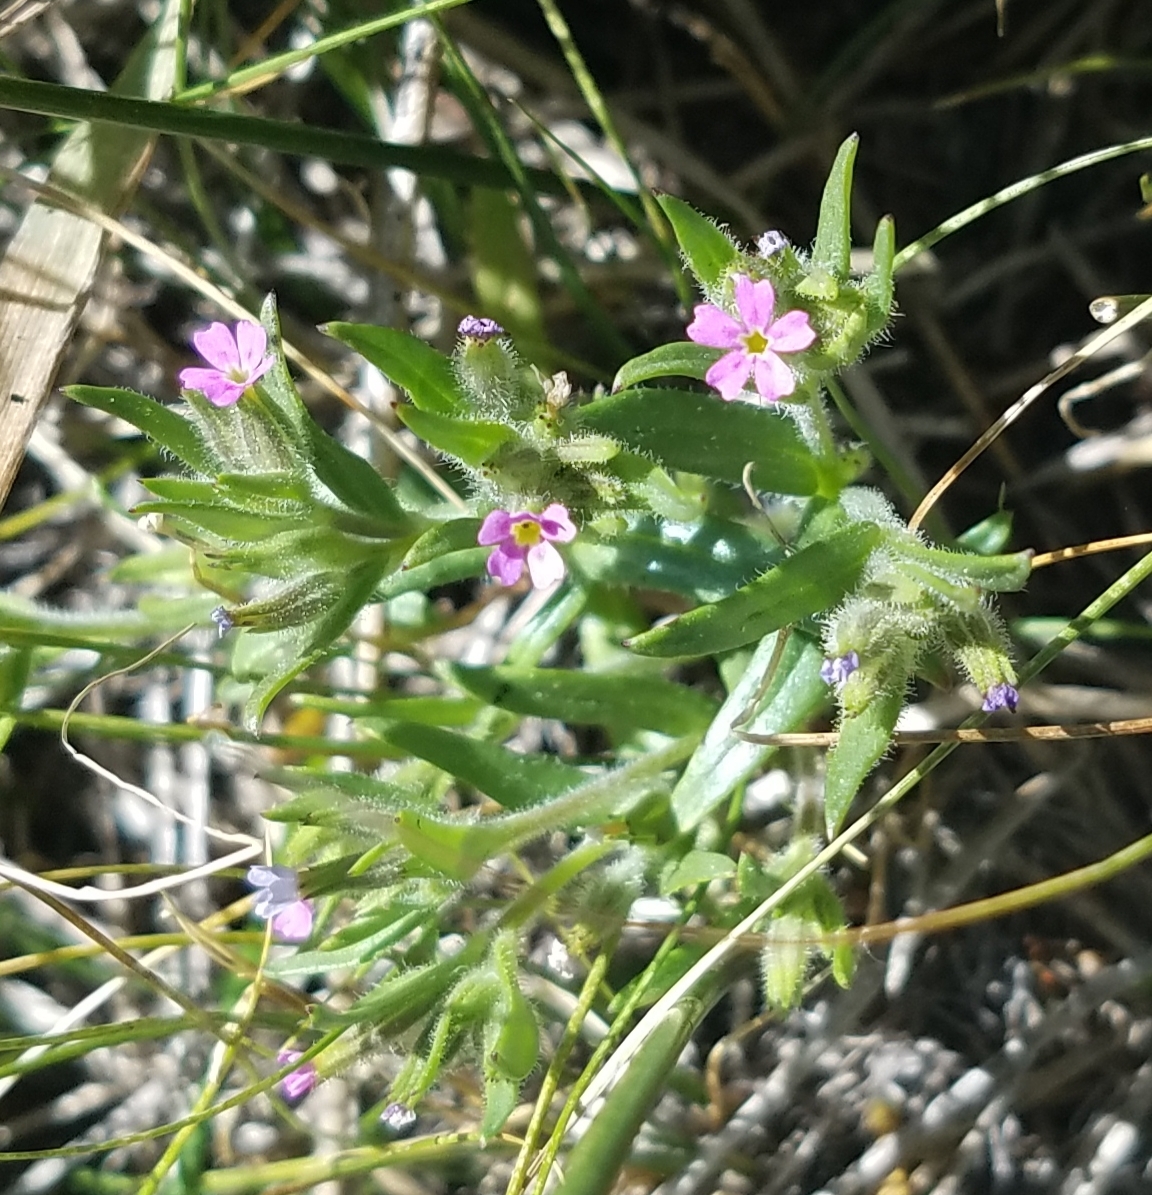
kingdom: Plantae
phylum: Tracheophyta
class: Magnoliopsida
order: Ericales
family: Polemoniaceae
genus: Phlox
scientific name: Phlox gracilis
